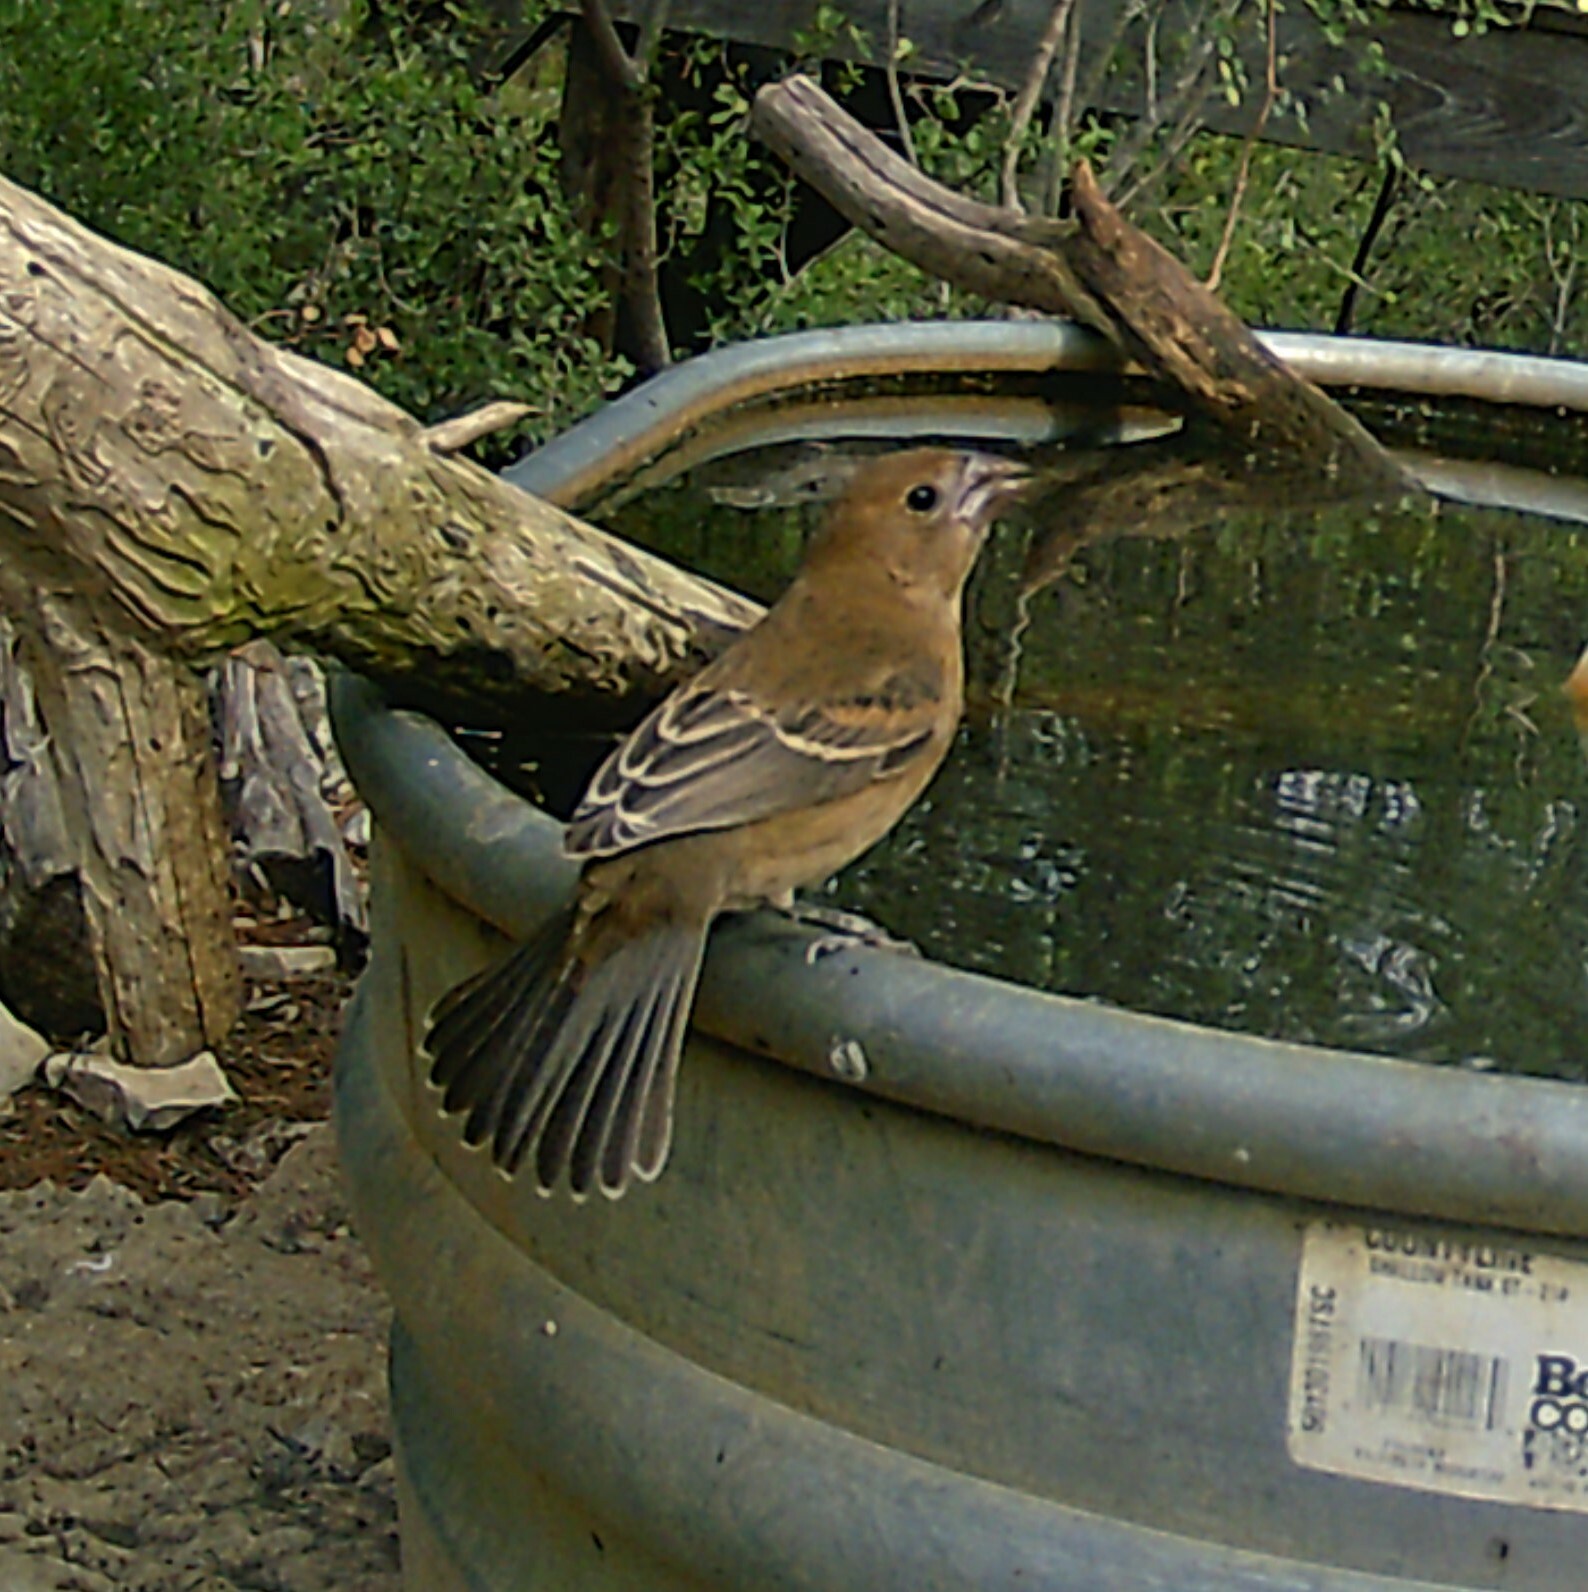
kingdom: Animalia
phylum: Chordata
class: Aves
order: Passeriformes
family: Cardinalidae
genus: Passerina
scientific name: Passerina caerulea
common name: Blue grosbeak
